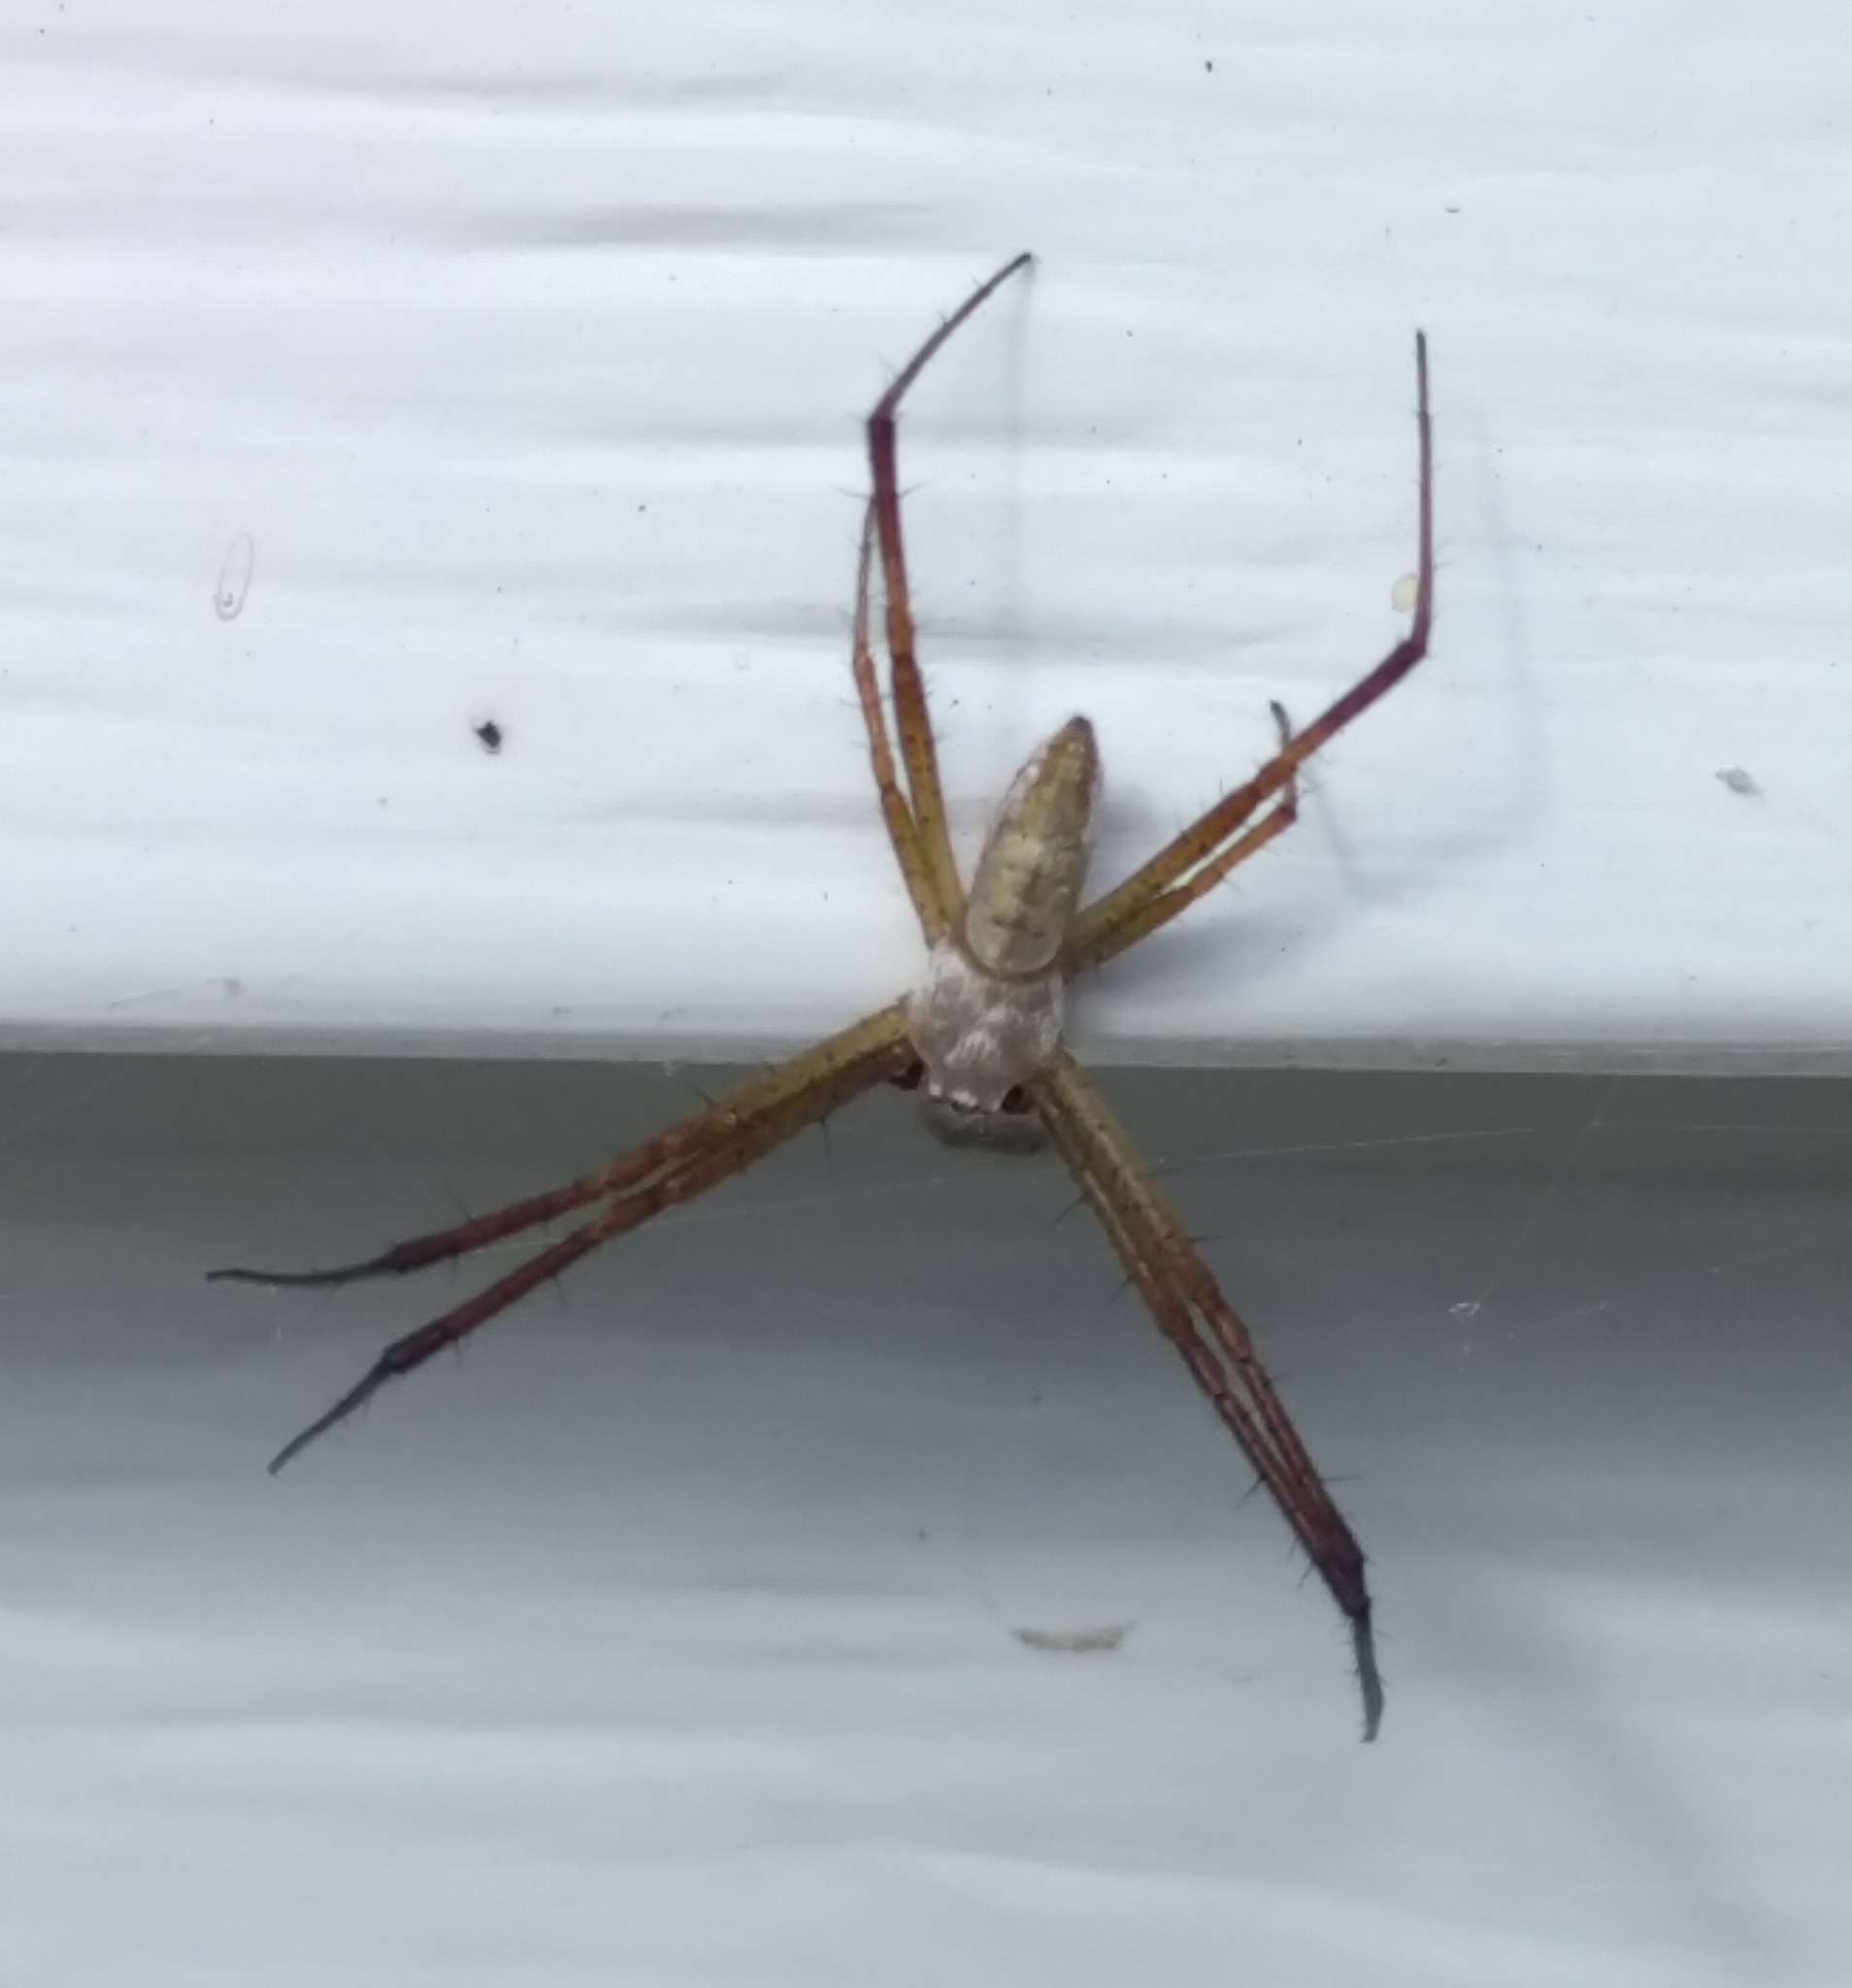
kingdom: Animalia
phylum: Arthropoda
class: Arachnida
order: Araneae
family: Araneidae
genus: Argiope
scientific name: Argiope trifasciata
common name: Banded garden spider
